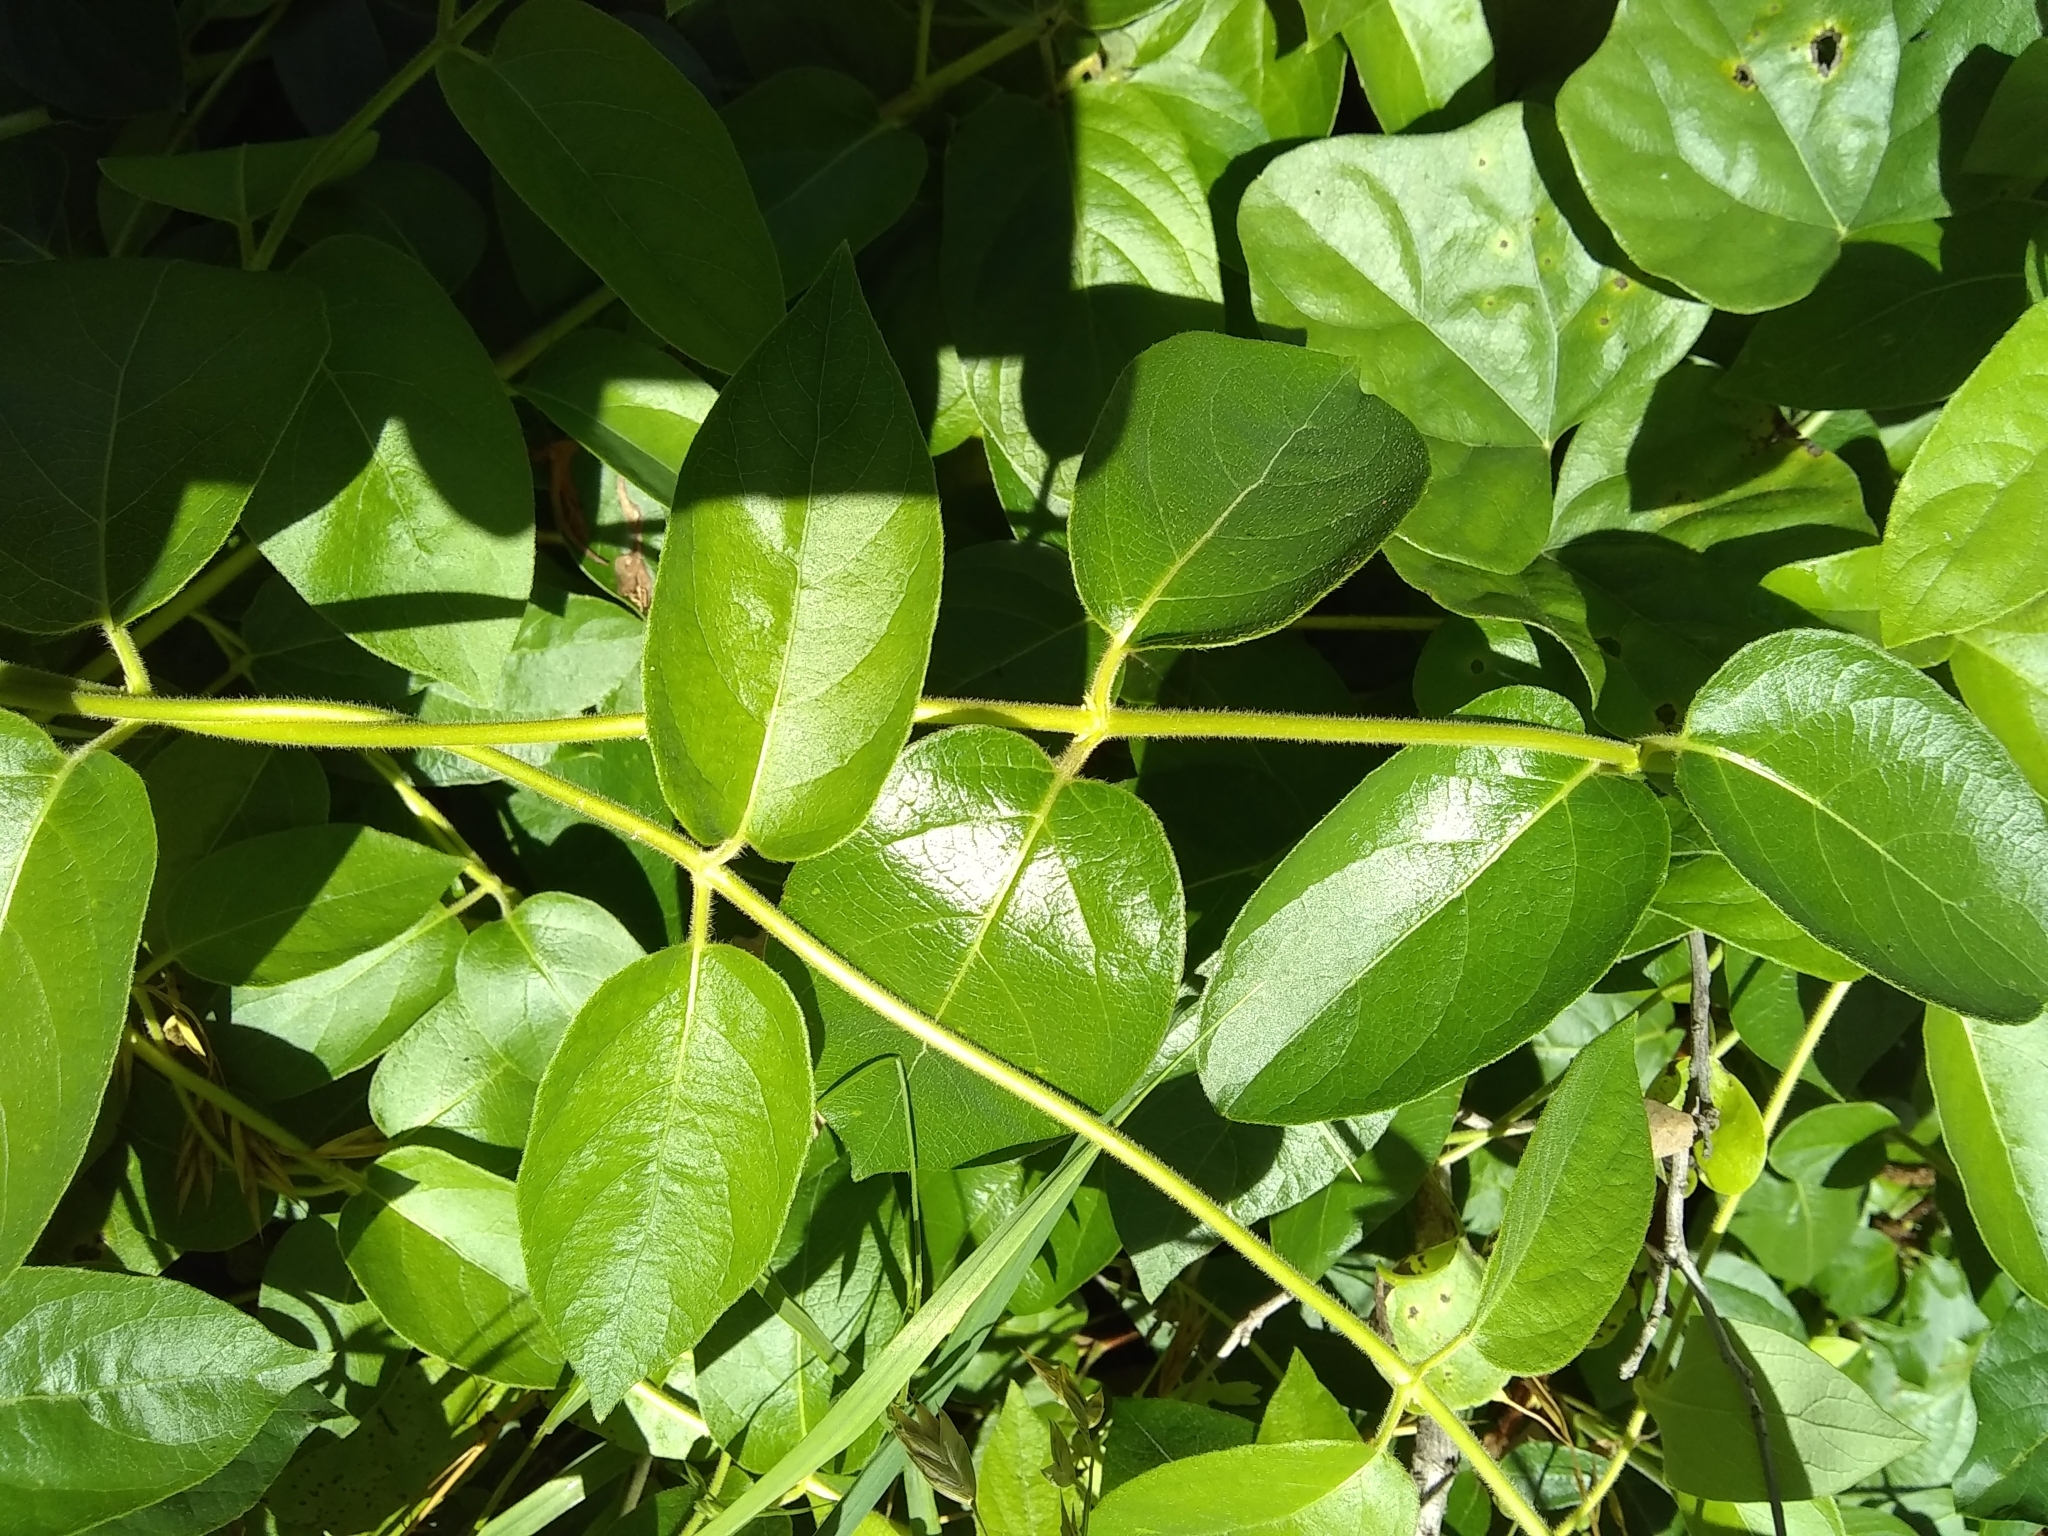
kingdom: Plantae
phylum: Tracheophyta
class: Magnoliopsida
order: Dipsacales
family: Caprifoliaceae
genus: Lonicera
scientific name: Lonicera japonica
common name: Japanese honeysuckle
